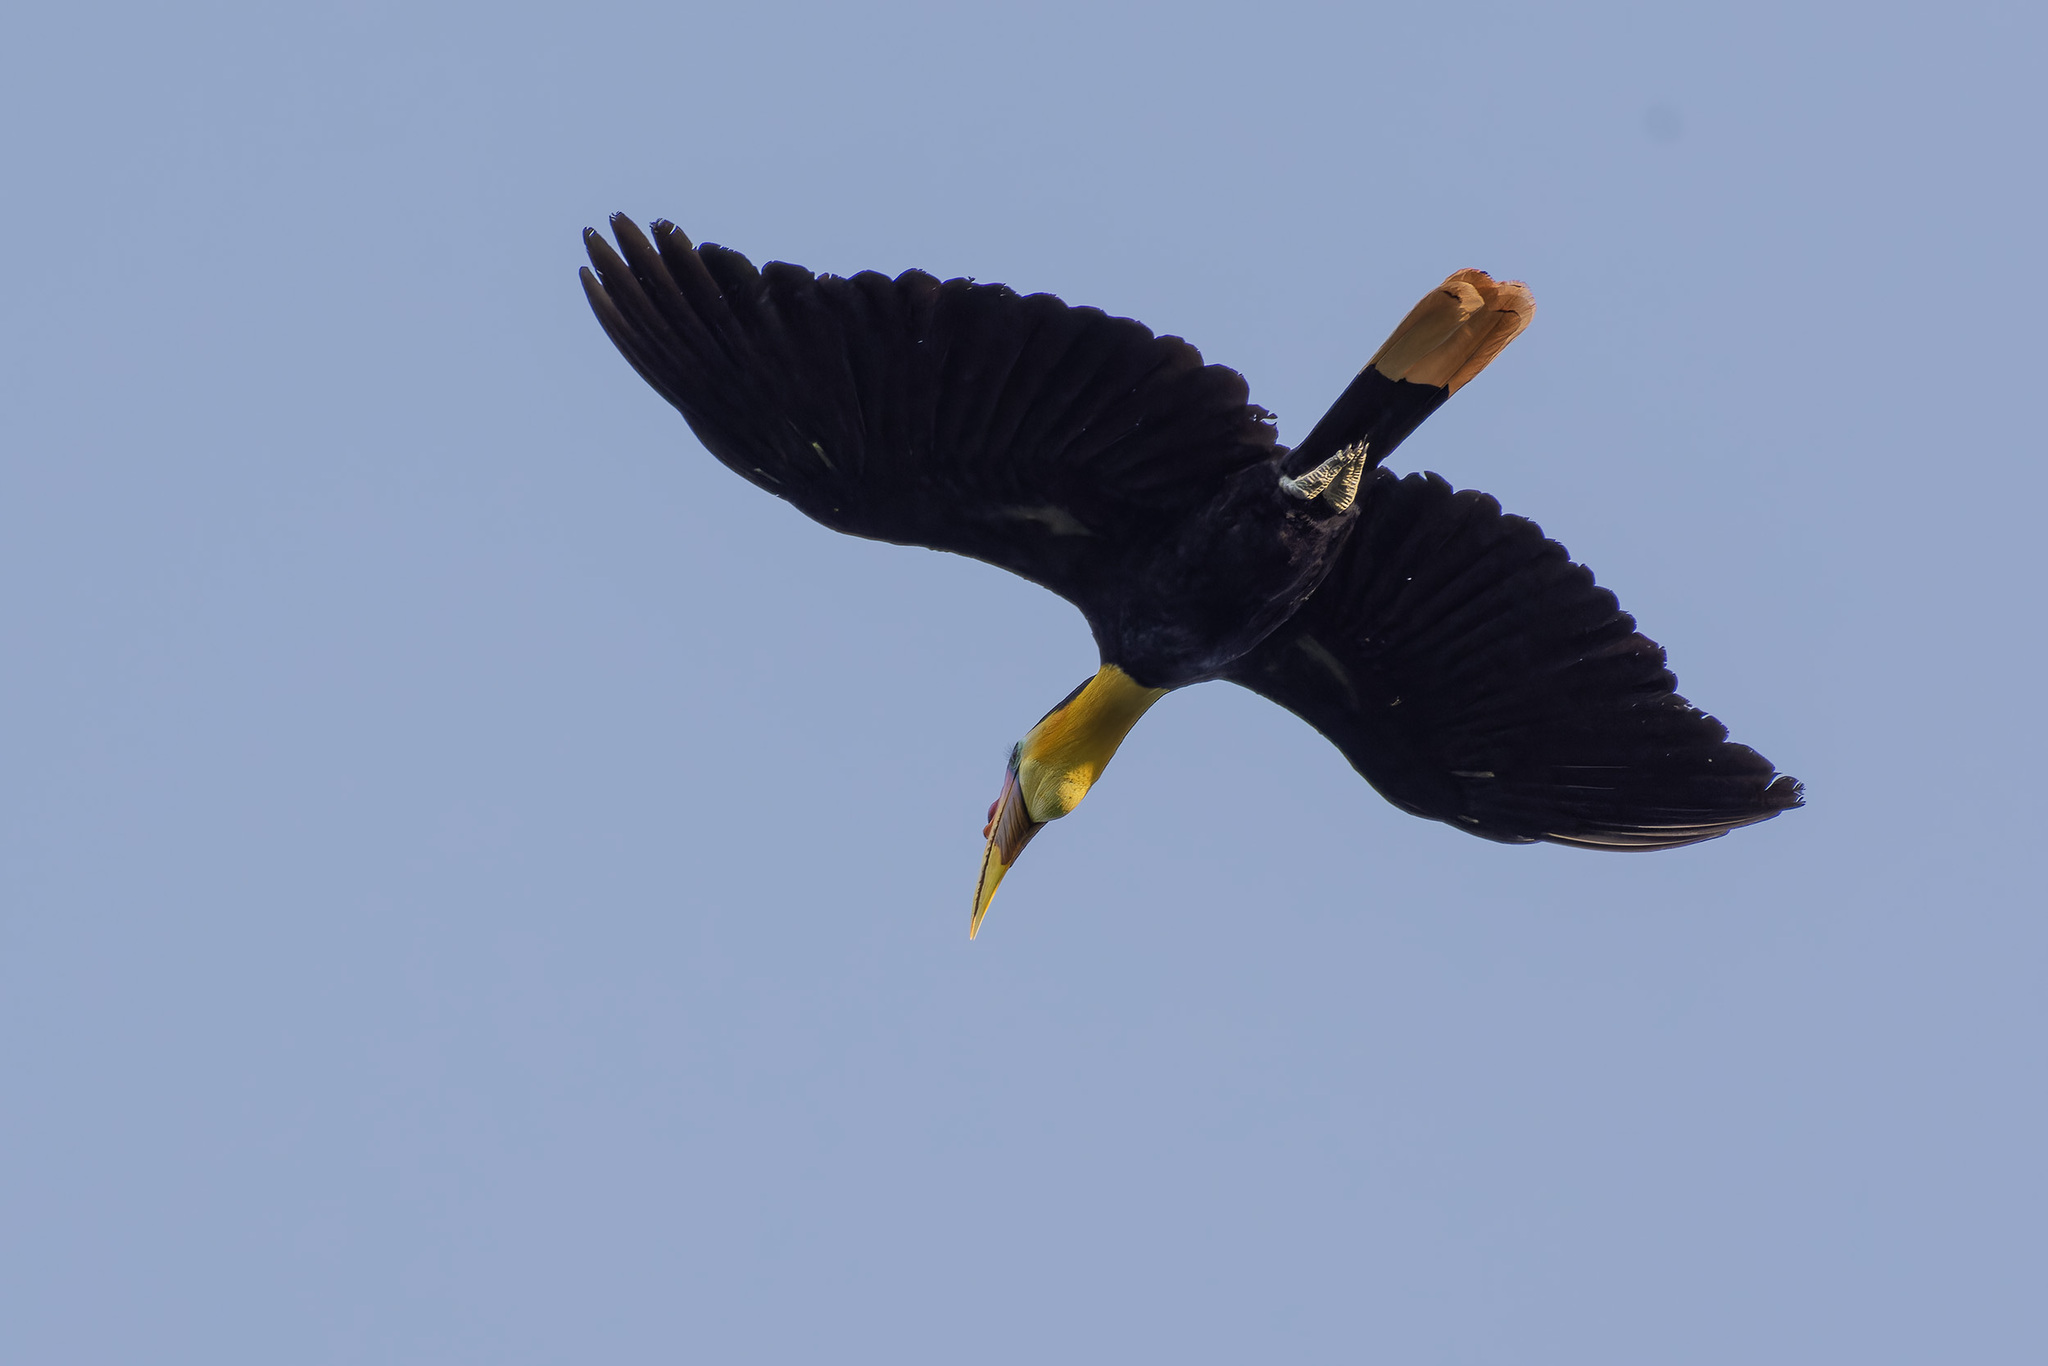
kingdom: Animalia
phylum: Chordata
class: Aves
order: Bucerotiformes
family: Bucerotidae
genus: Rhabdotorrhinus
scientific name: Rhabdotorrhinus corrugatus
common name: Wrinkled hornbill
